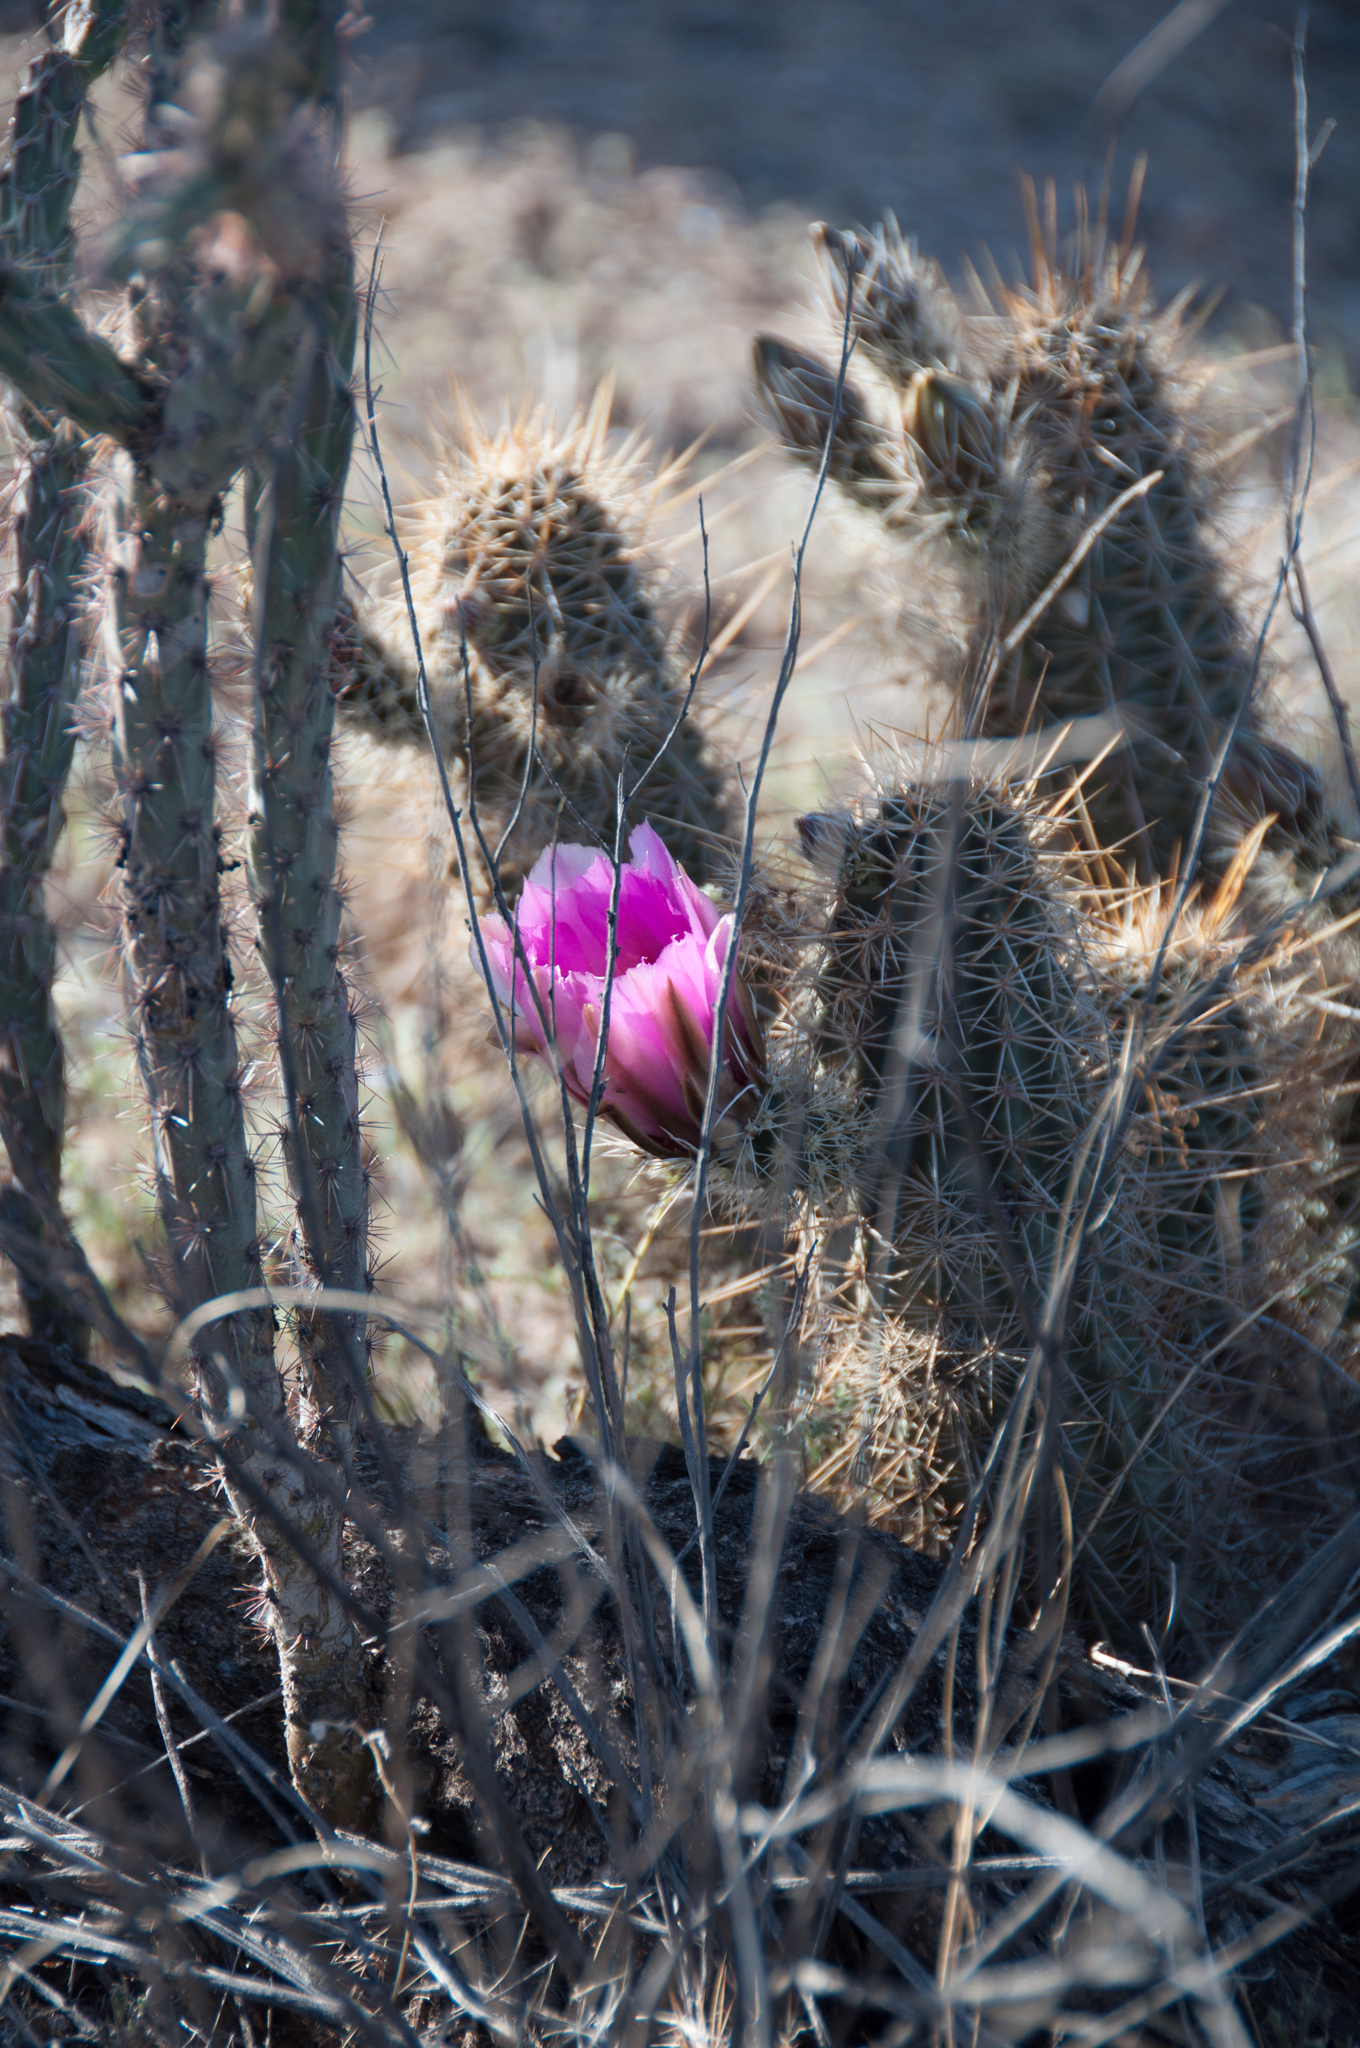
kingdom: Plantae
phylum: Tracheophyta
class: Magnoliopsida
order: Caryophyllales
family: Cactaceae
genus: Echinocereus
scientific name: Echinocereus fasciculatus
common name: Bundle hedgehog
